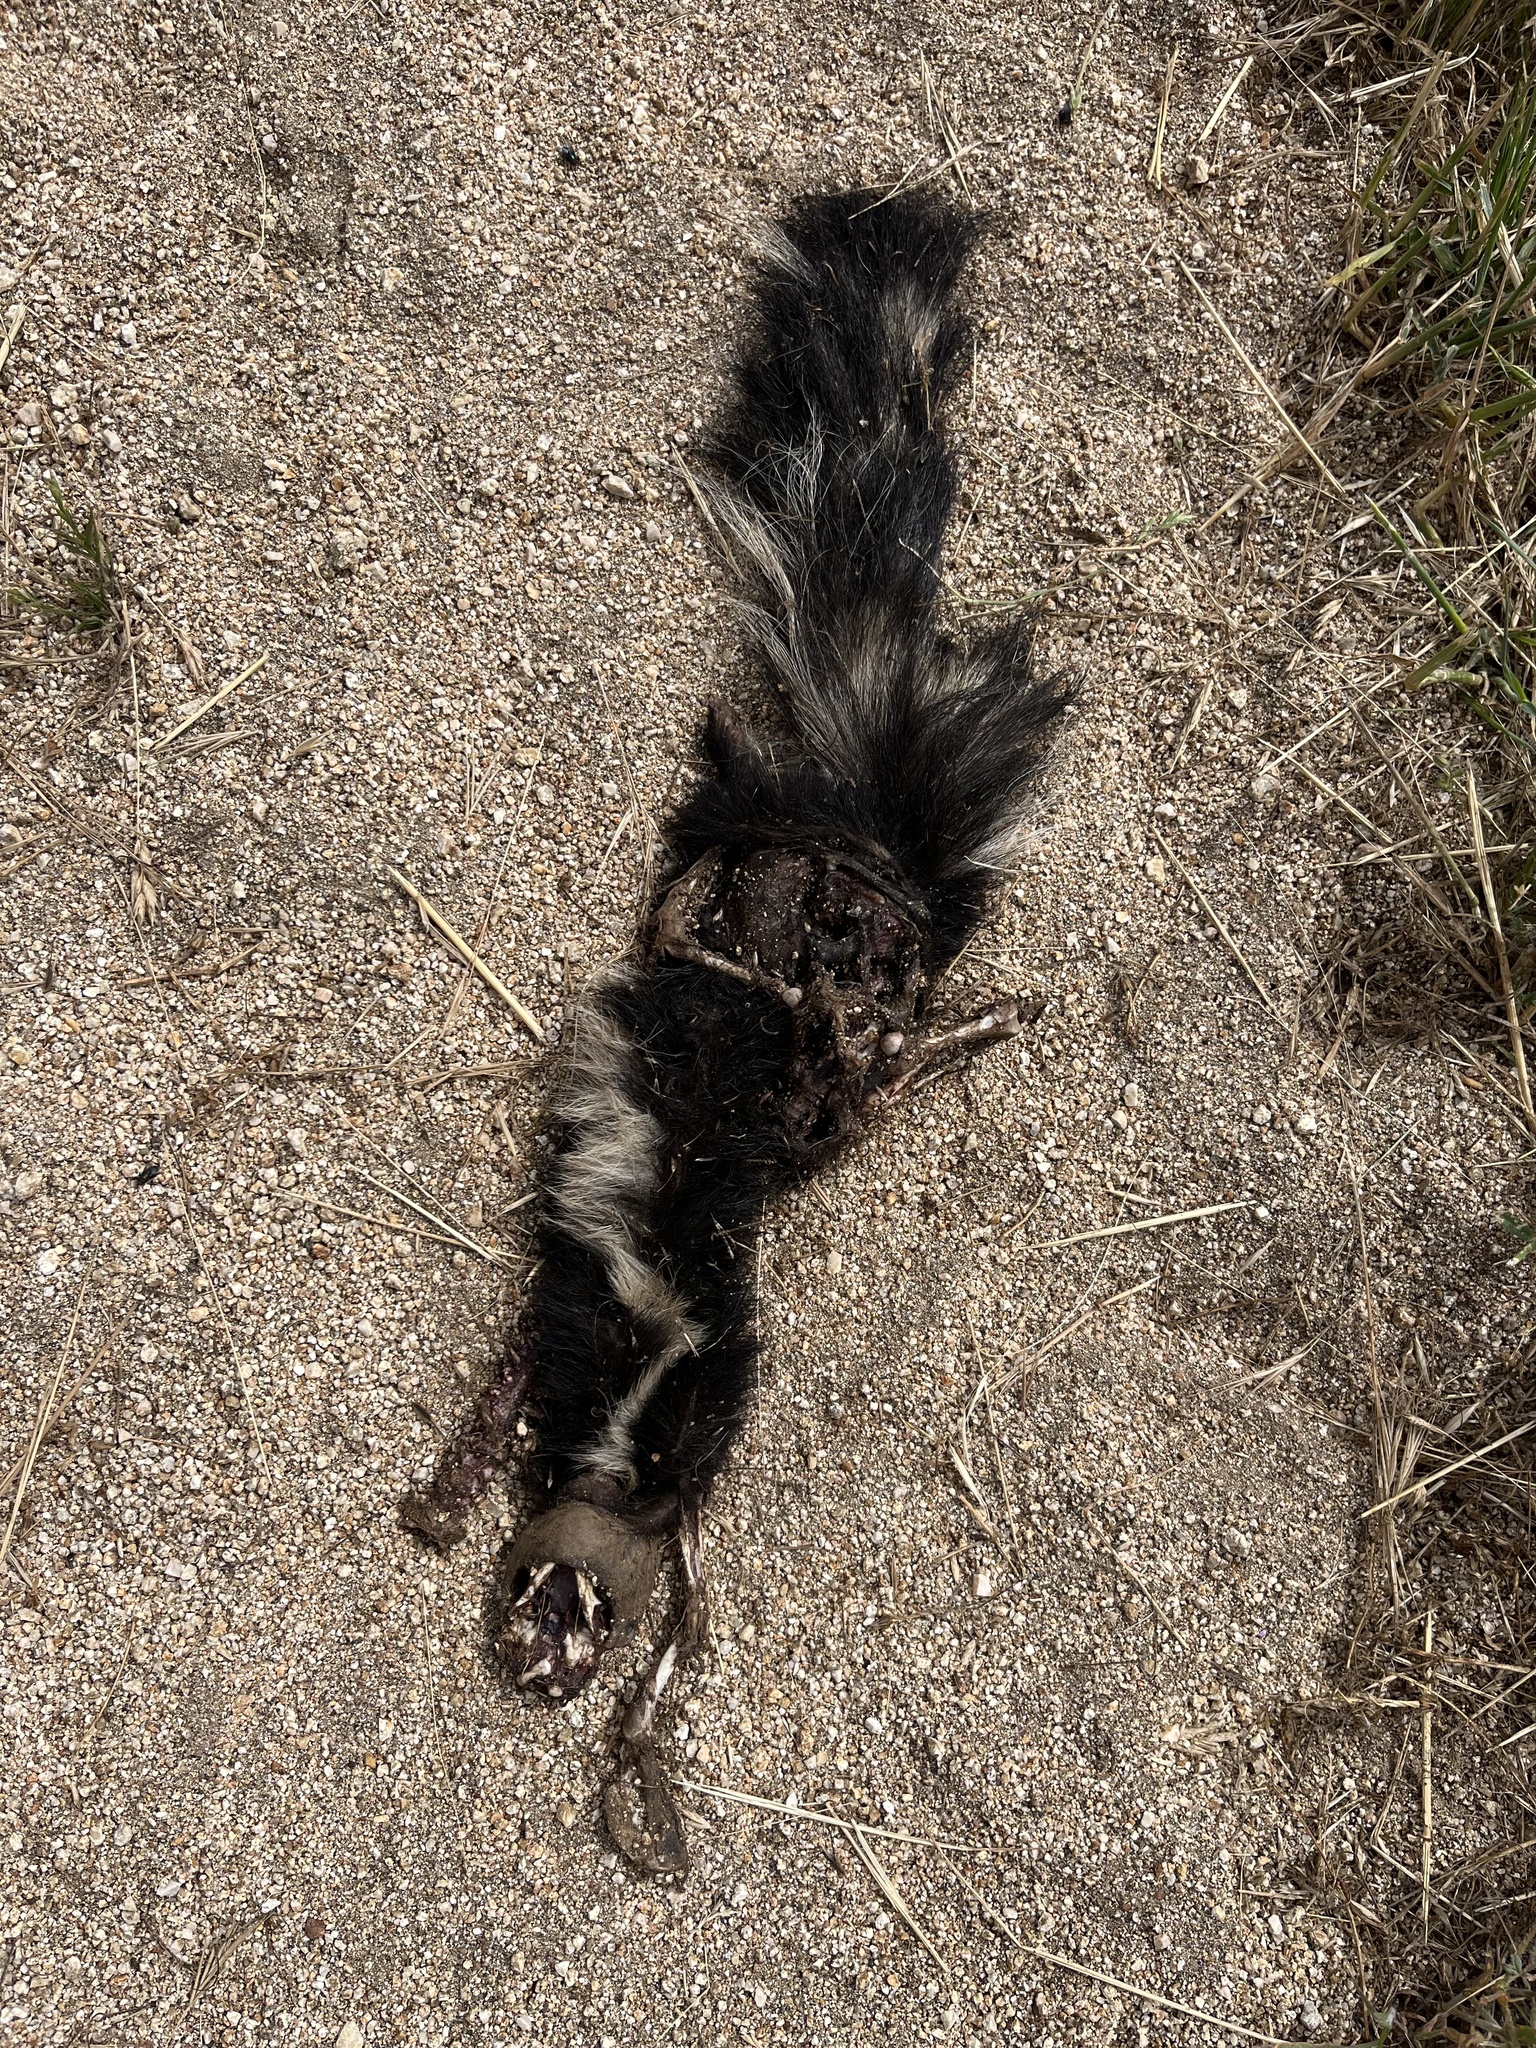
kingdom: Animalia
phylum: Chordata
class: Mammalia
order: Carnivora
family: Mephitidae
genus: Mephitis
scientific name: Mephitis mephitis
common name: Striped skunk
